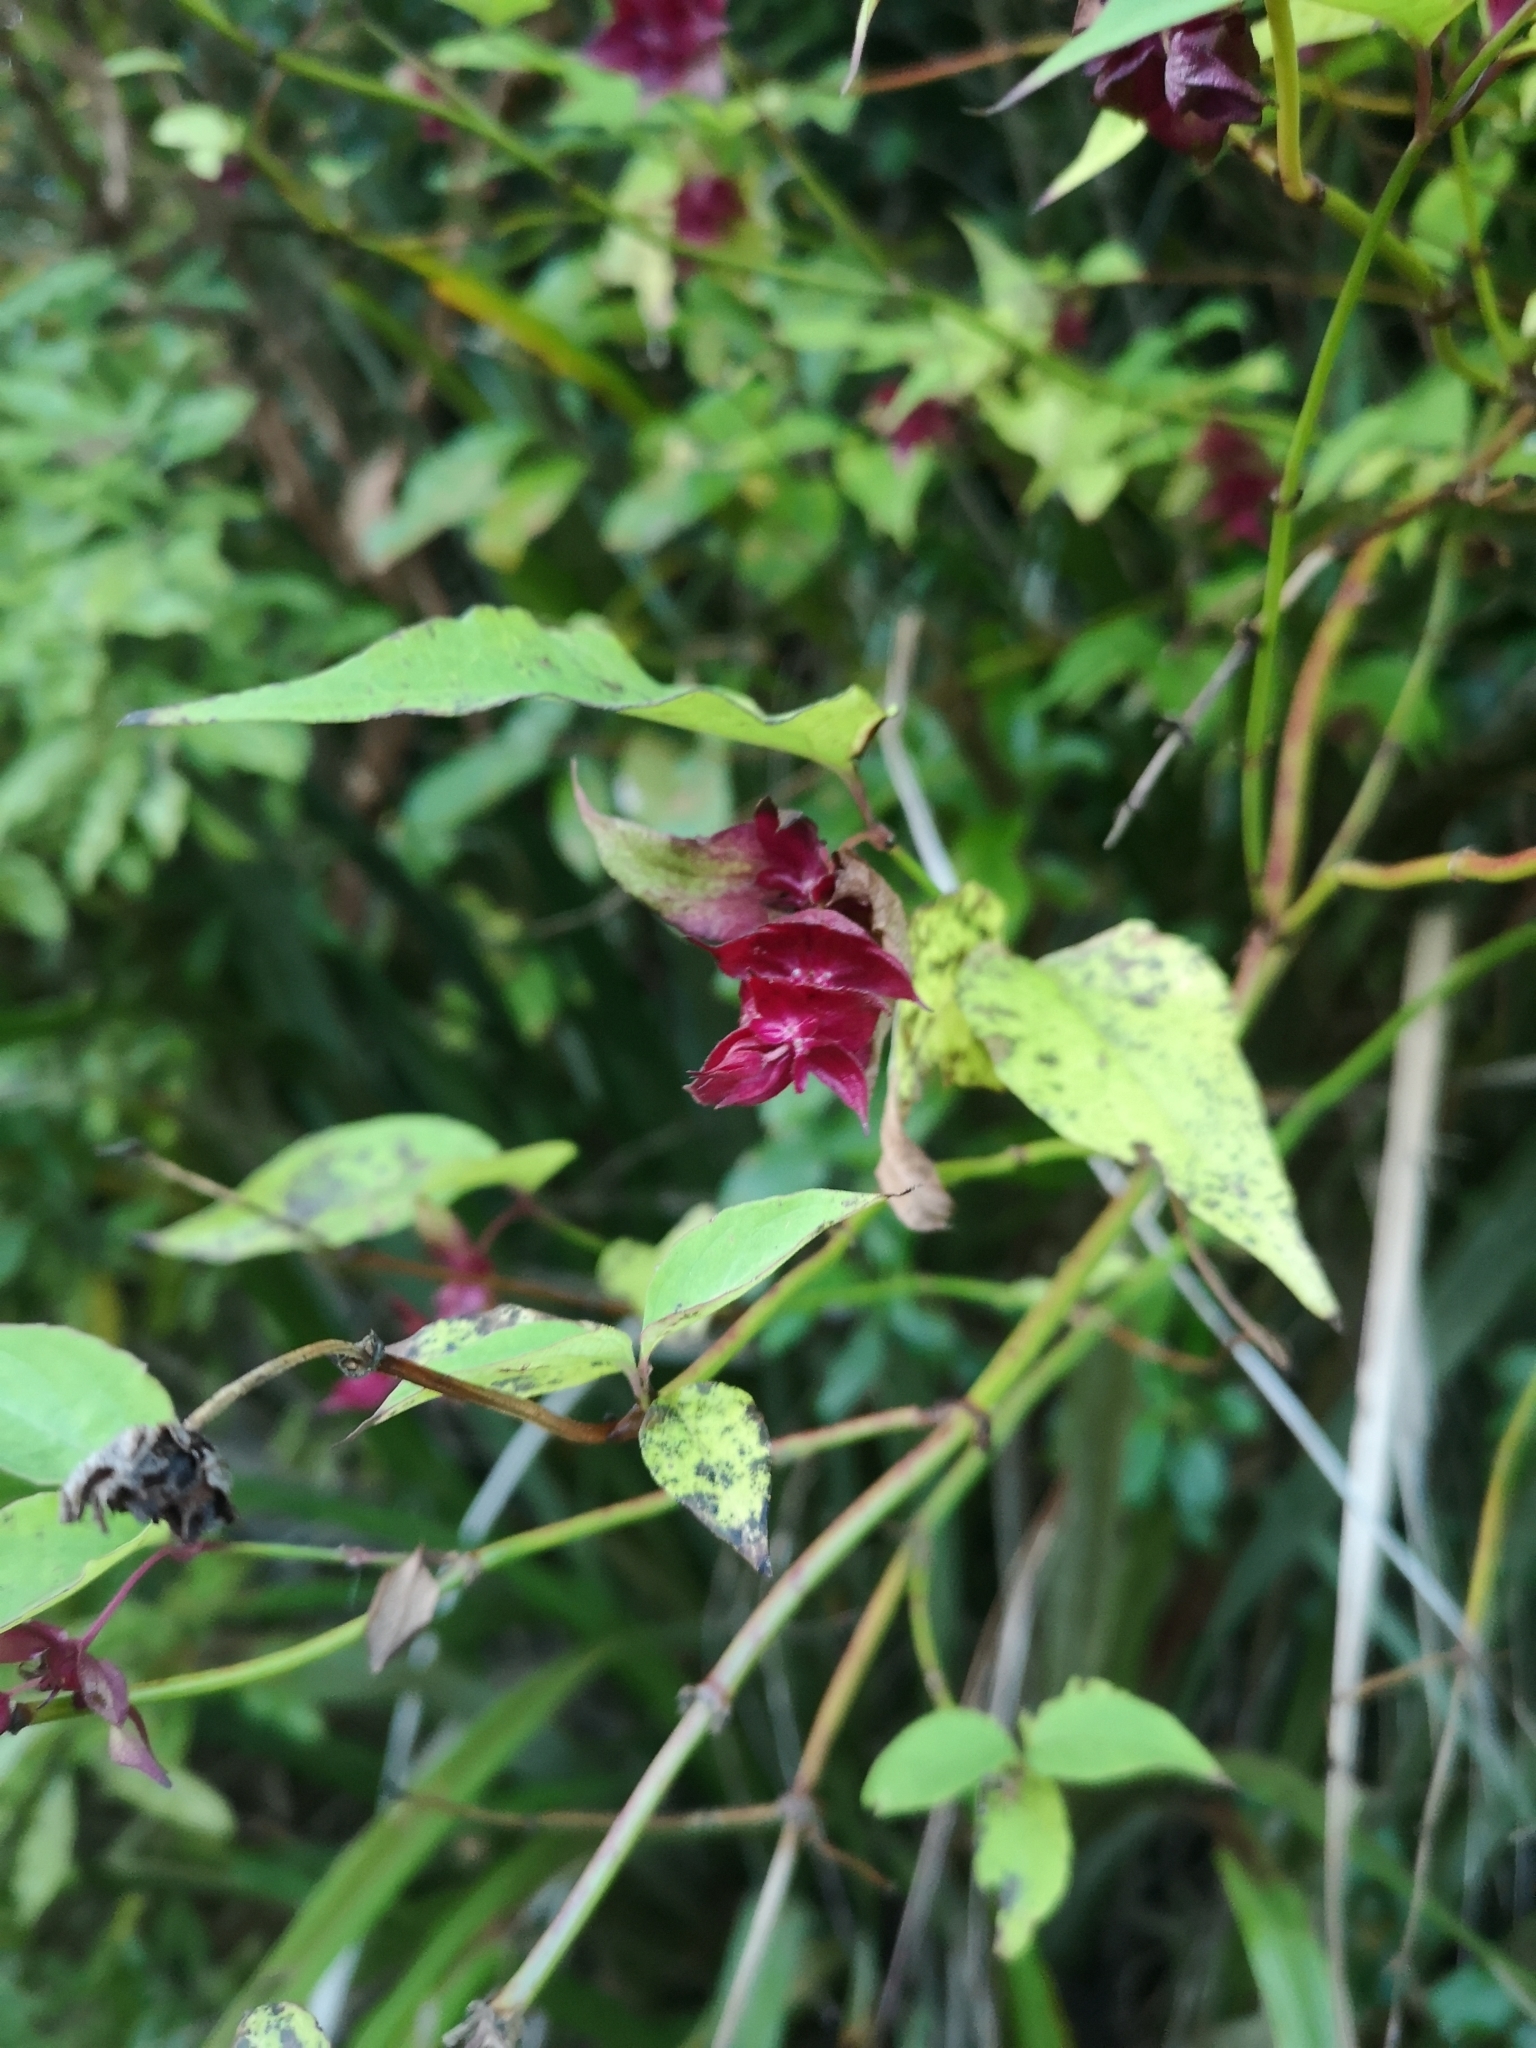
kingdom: Plantae
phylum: Tracheophyta
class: Magnoliopsida
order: Dipsacales
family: Caprifoliaceae
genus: Leycesteria
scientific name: Leycesteria formosa
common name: Himalayan honeysuckle
